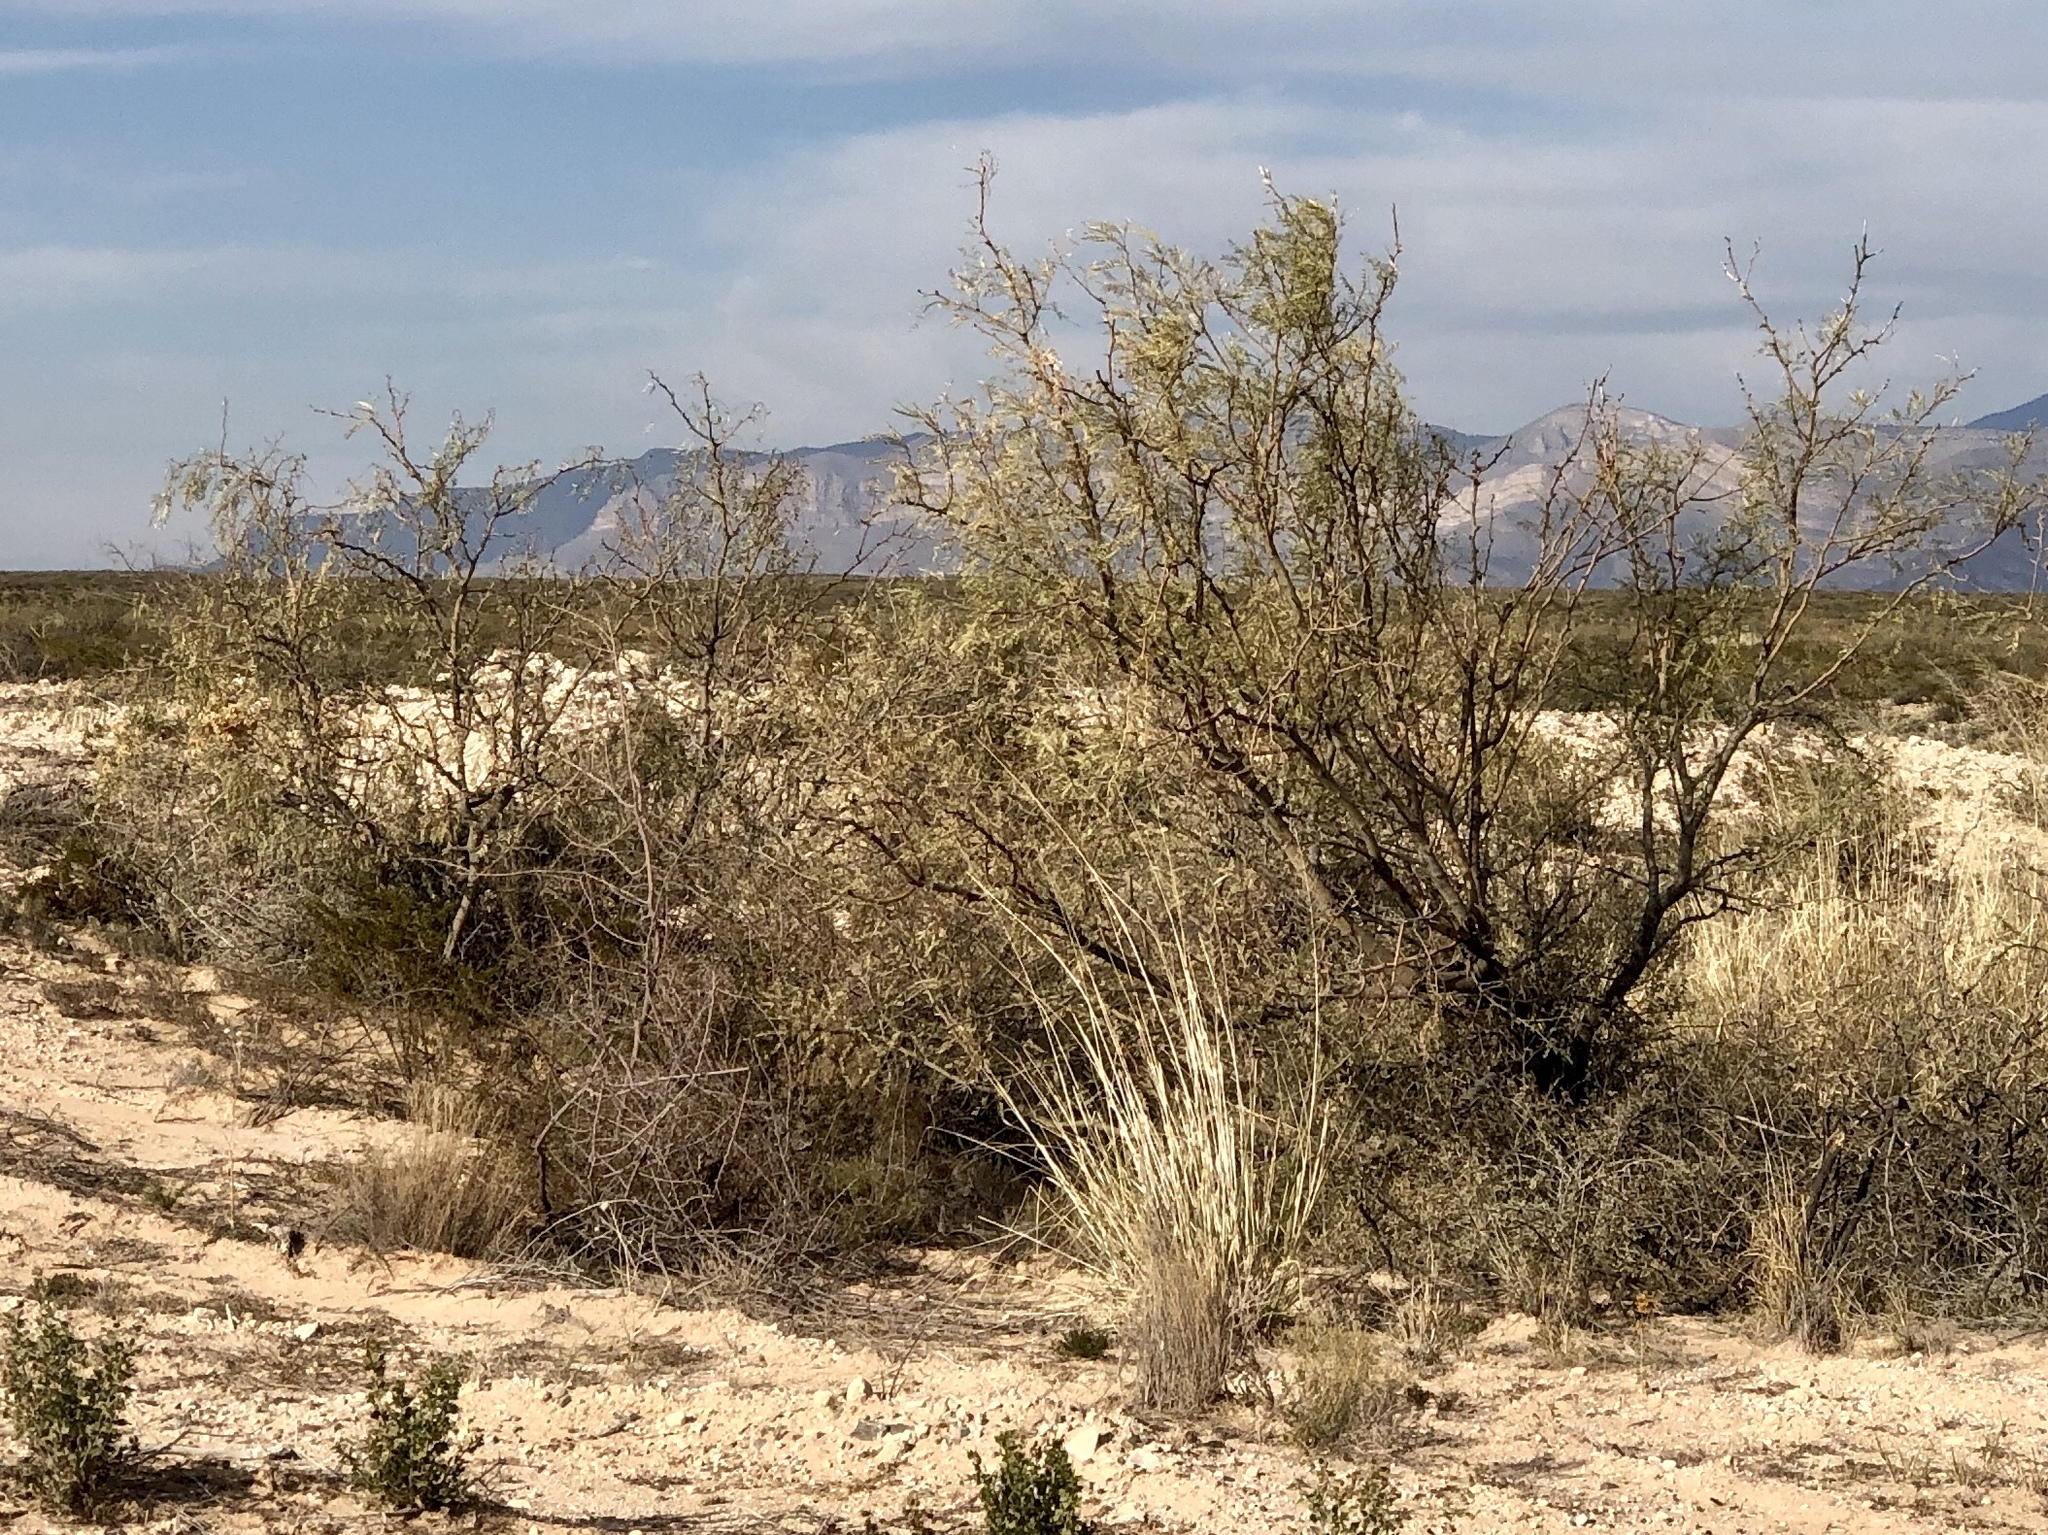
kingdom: Plantae
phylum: Tracheophyta
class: Magnoliopsida
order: Fabales
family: Fabaceae
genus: Prosopis
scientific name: Prosopis glandulosa
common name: Honey mesquite
